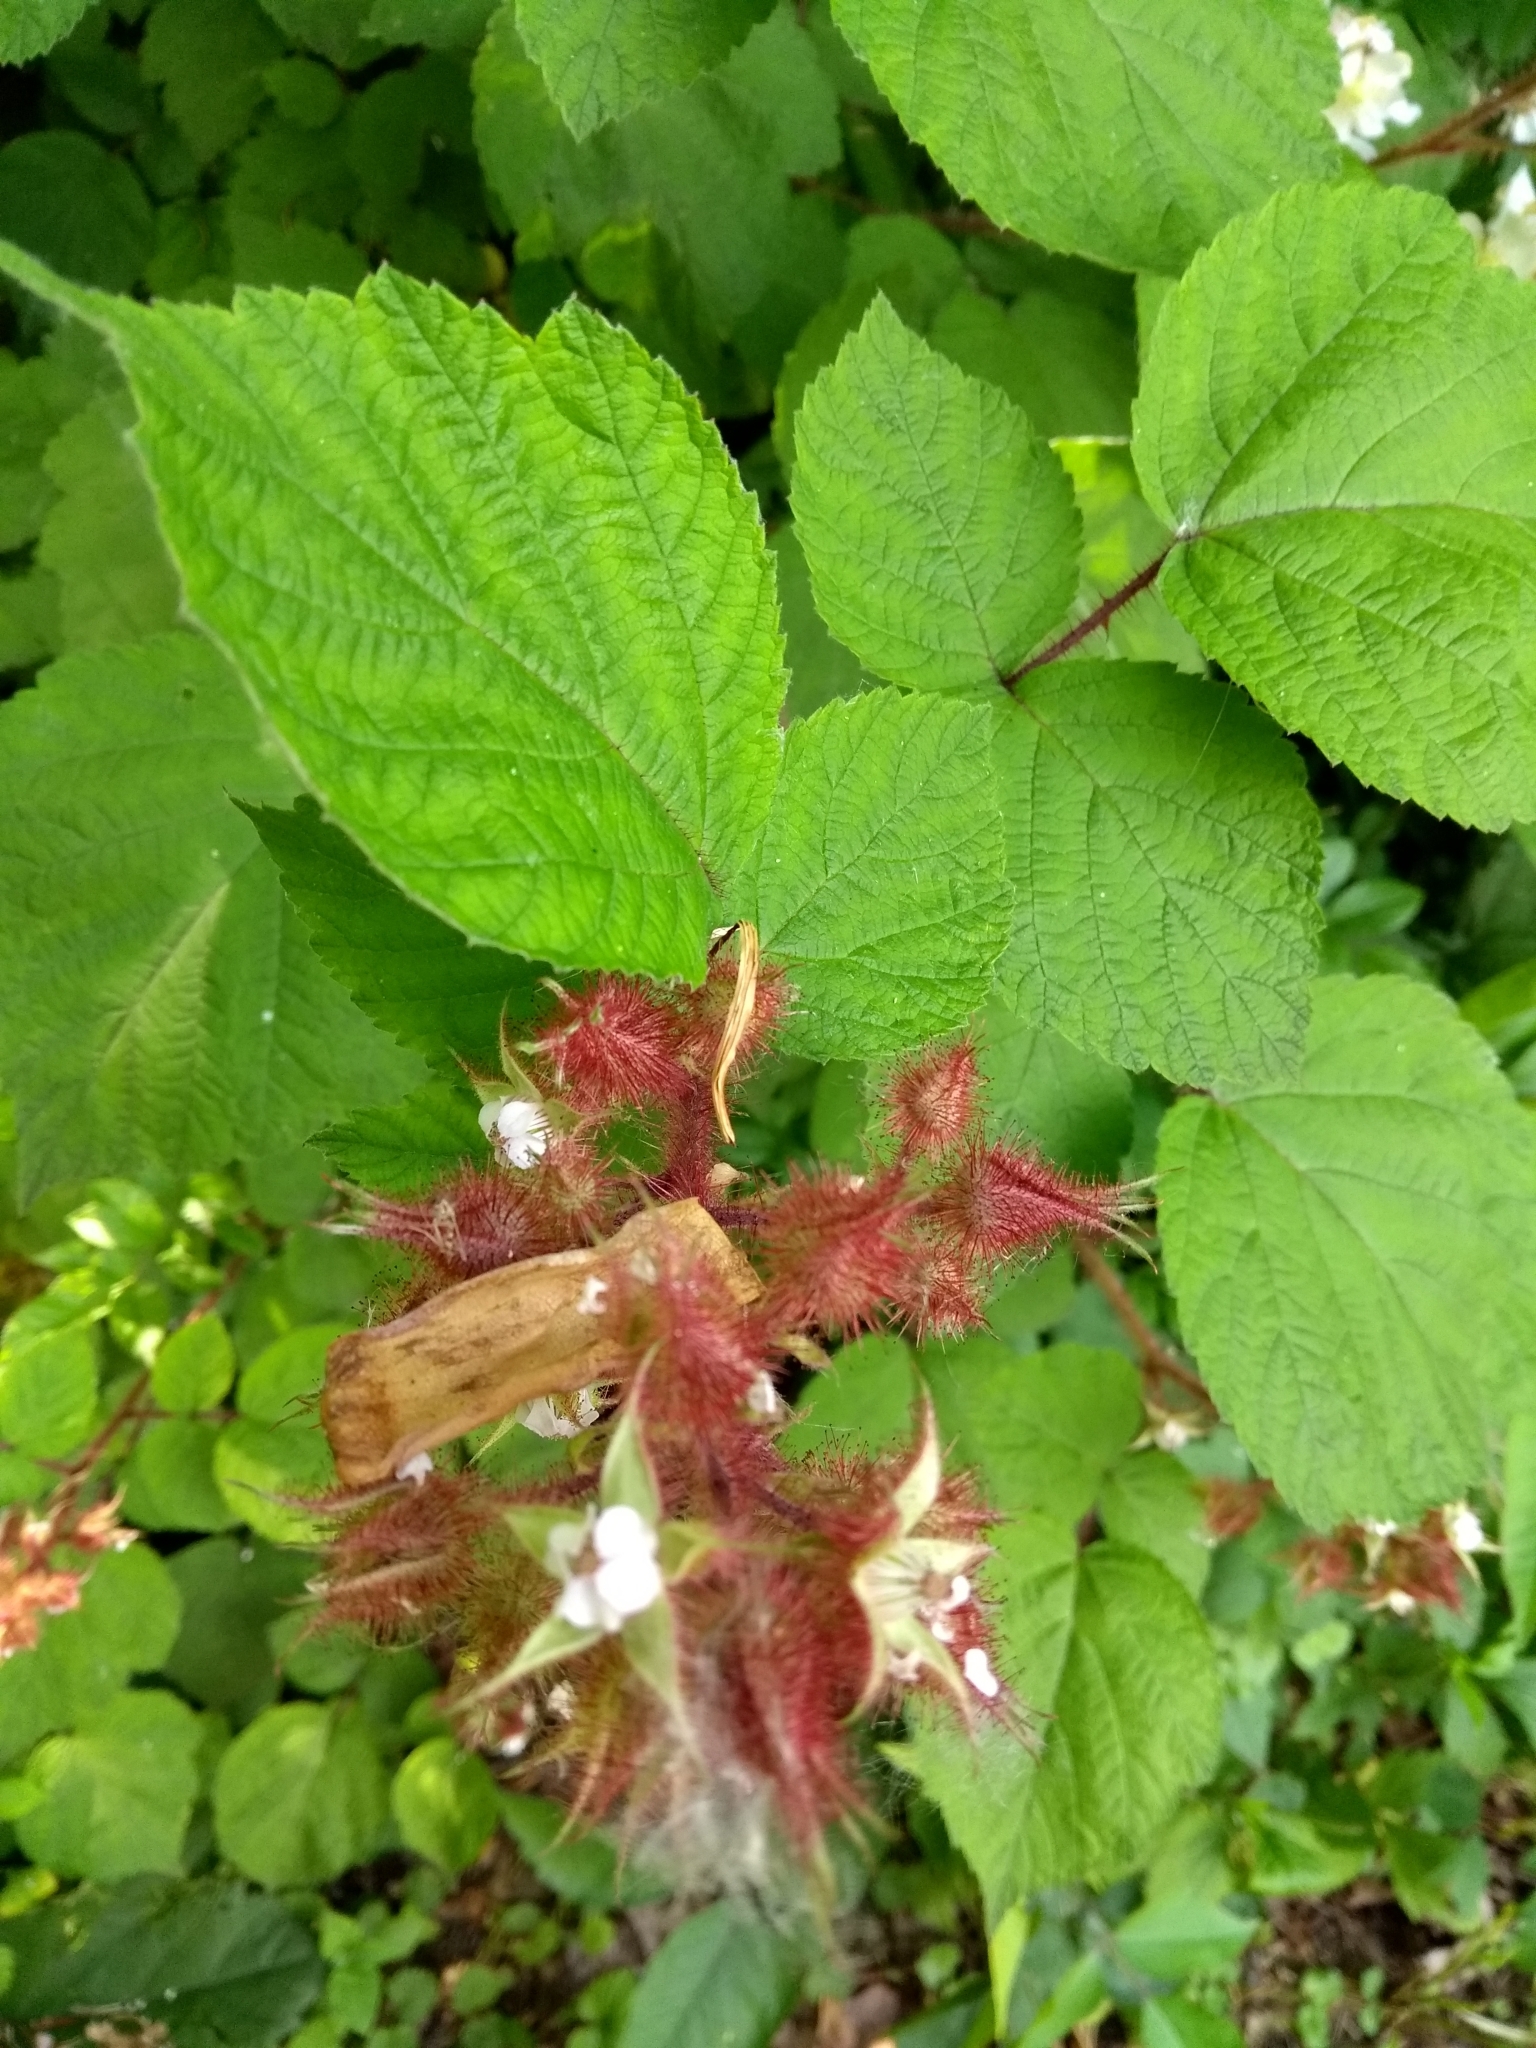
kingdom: Plantae
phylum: Tracheophyta
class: Magnoliopsida
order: Rosales
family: Rosaceae
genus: Rubus
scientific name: Rubus phoenicolasius
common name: Japanese wineberry
